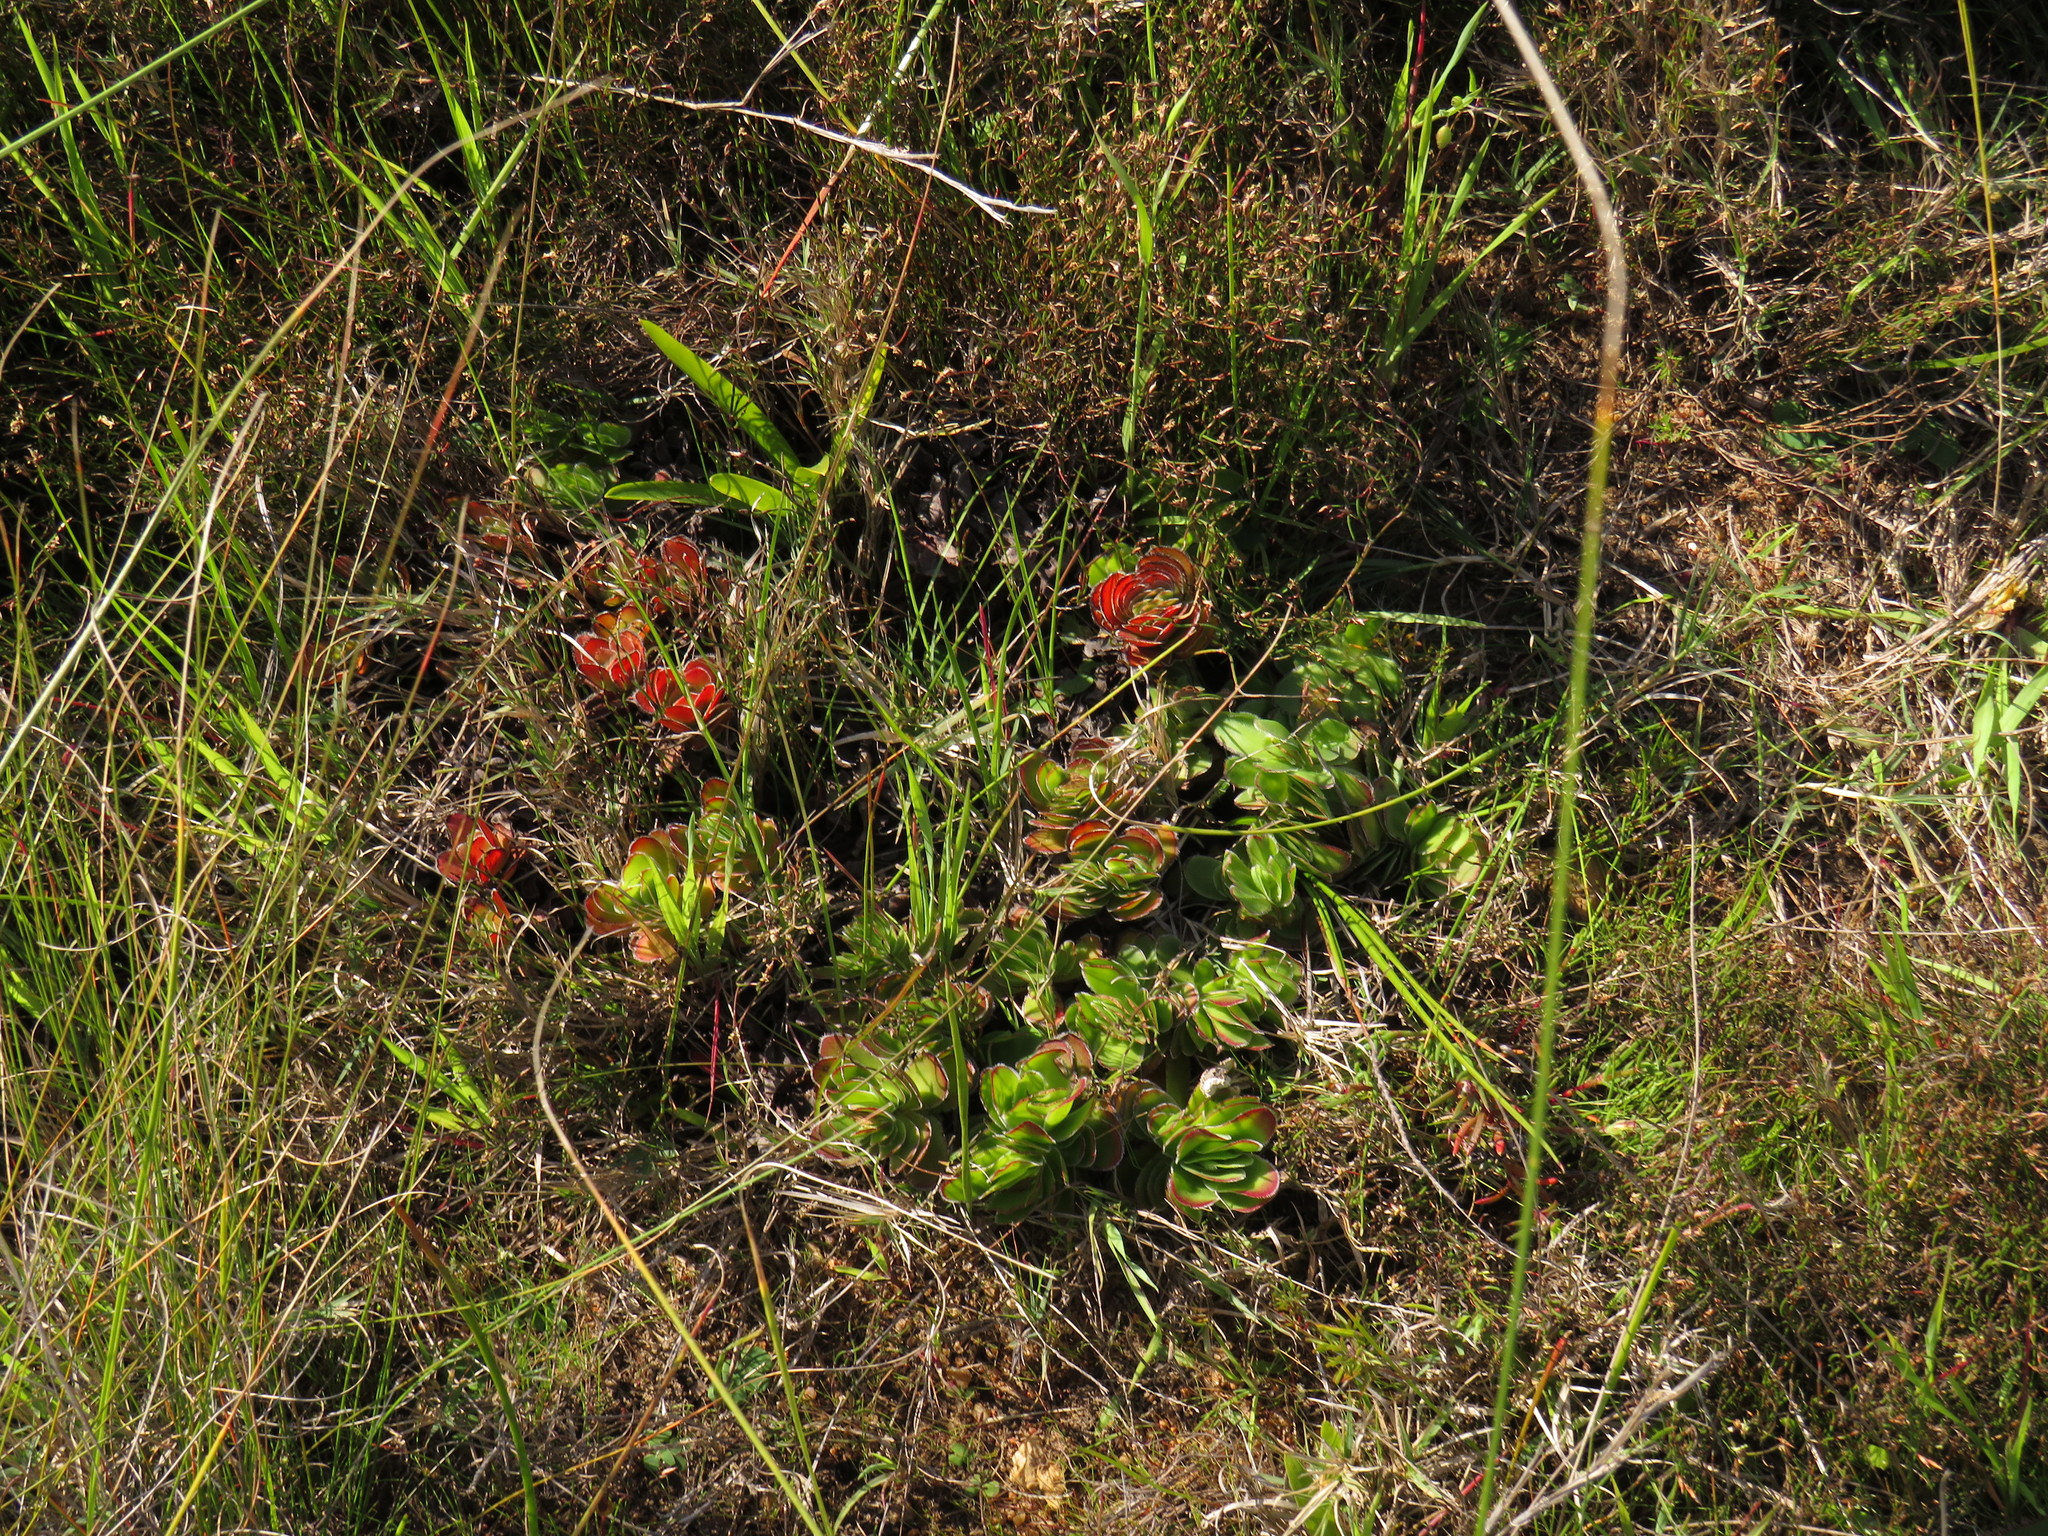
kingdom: Plantae
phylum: Tracheophyta
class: Magnoliopsida
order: Saxifragales
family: Crassulaceae
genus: Crassula
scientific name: Crassula fallax
